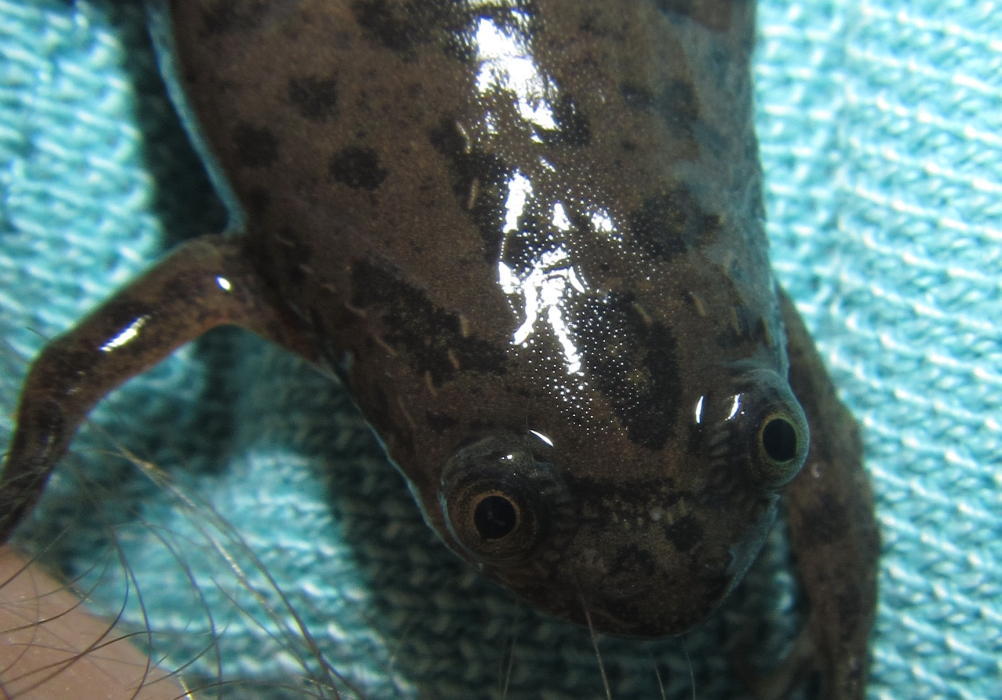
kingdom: Animalia
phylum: Chordata
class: Amphibia
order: Anura
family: Pipidae
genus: Xenopus
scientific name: Xenopus laevis
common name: African clawed frog
